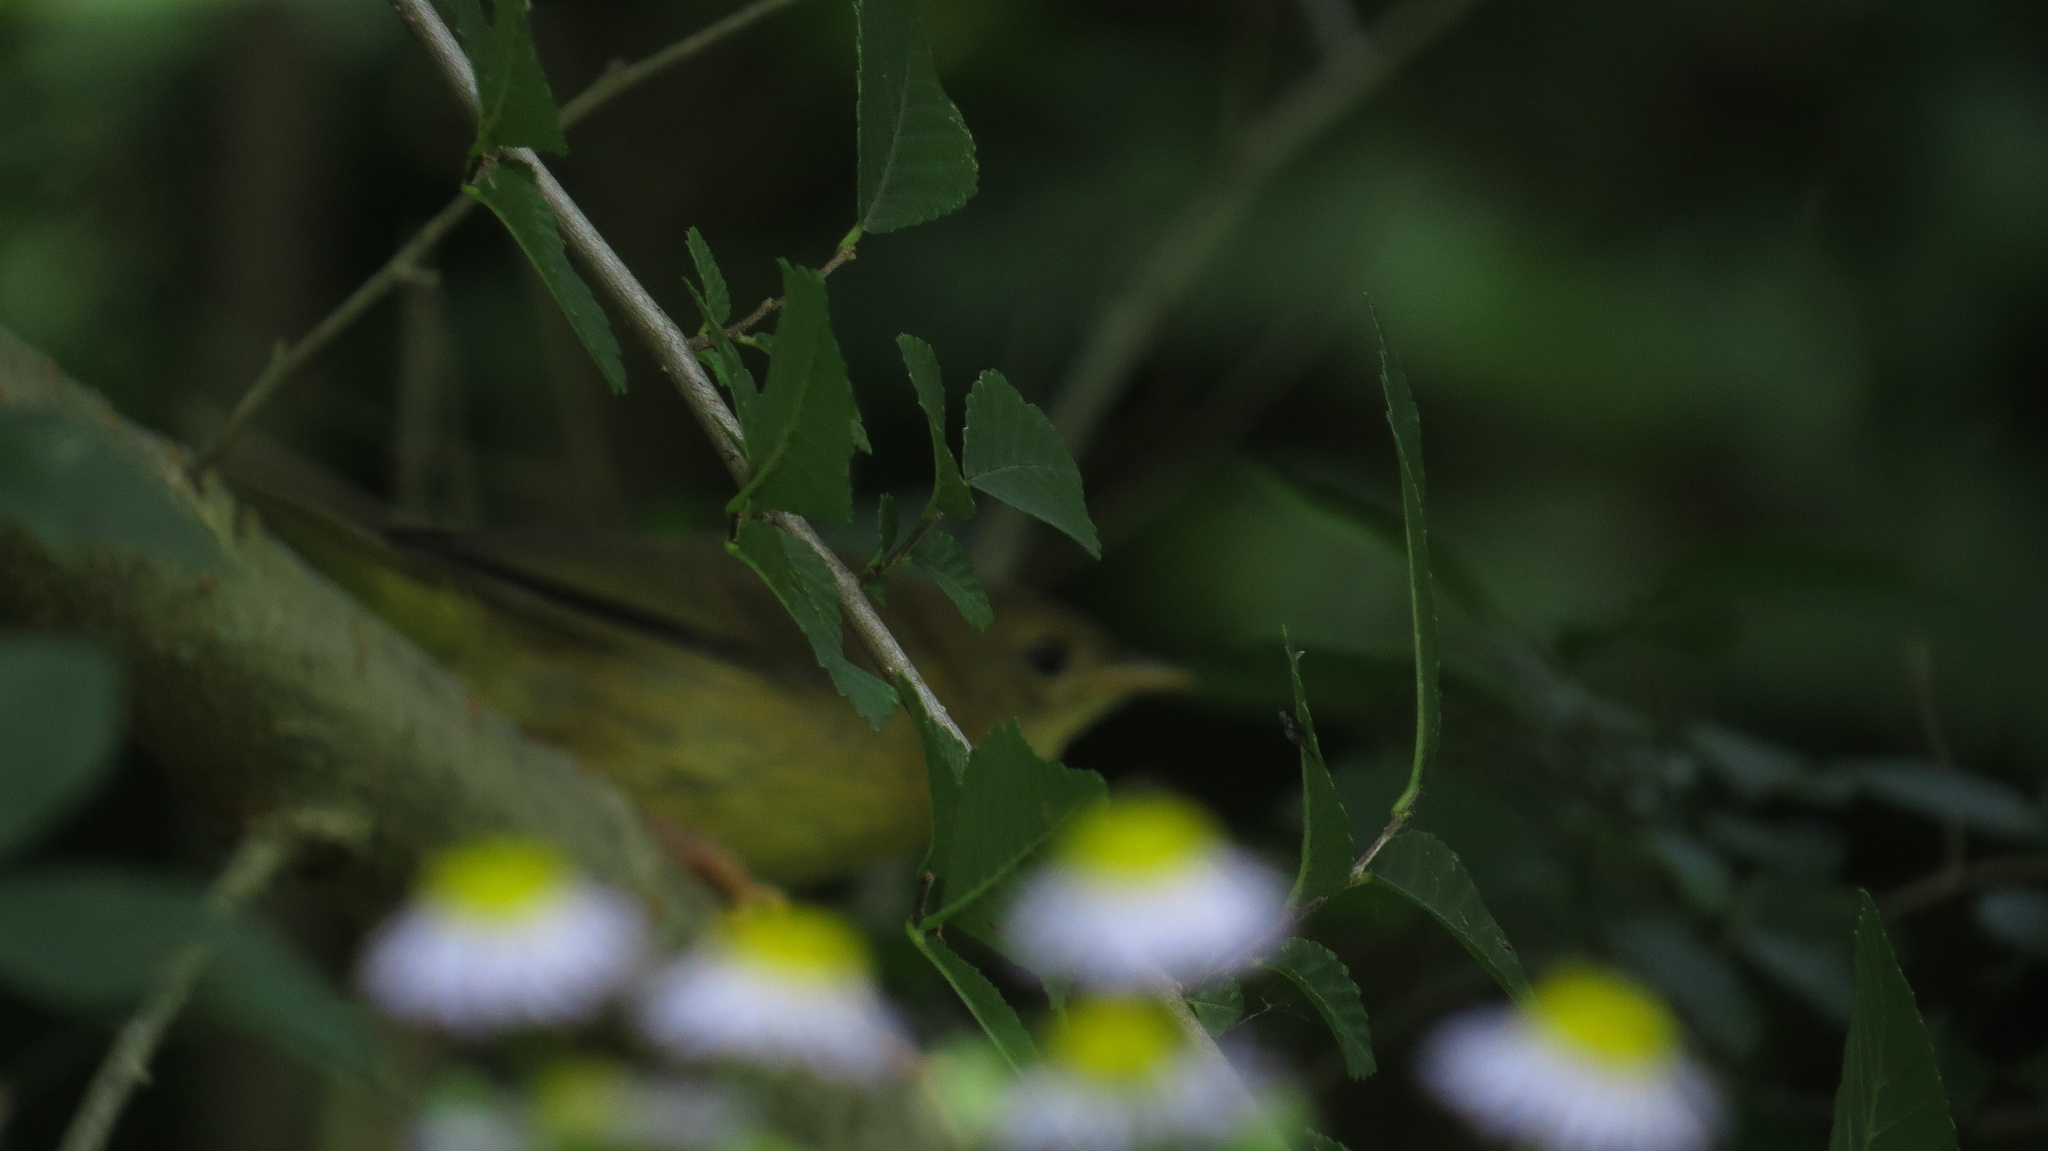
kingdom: Animalia
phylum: Chordata
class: Aves
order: Passeriformes
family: Parulidae
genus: Geothlypis
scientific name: Geothlypis trichas
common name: Common yellowthroat
